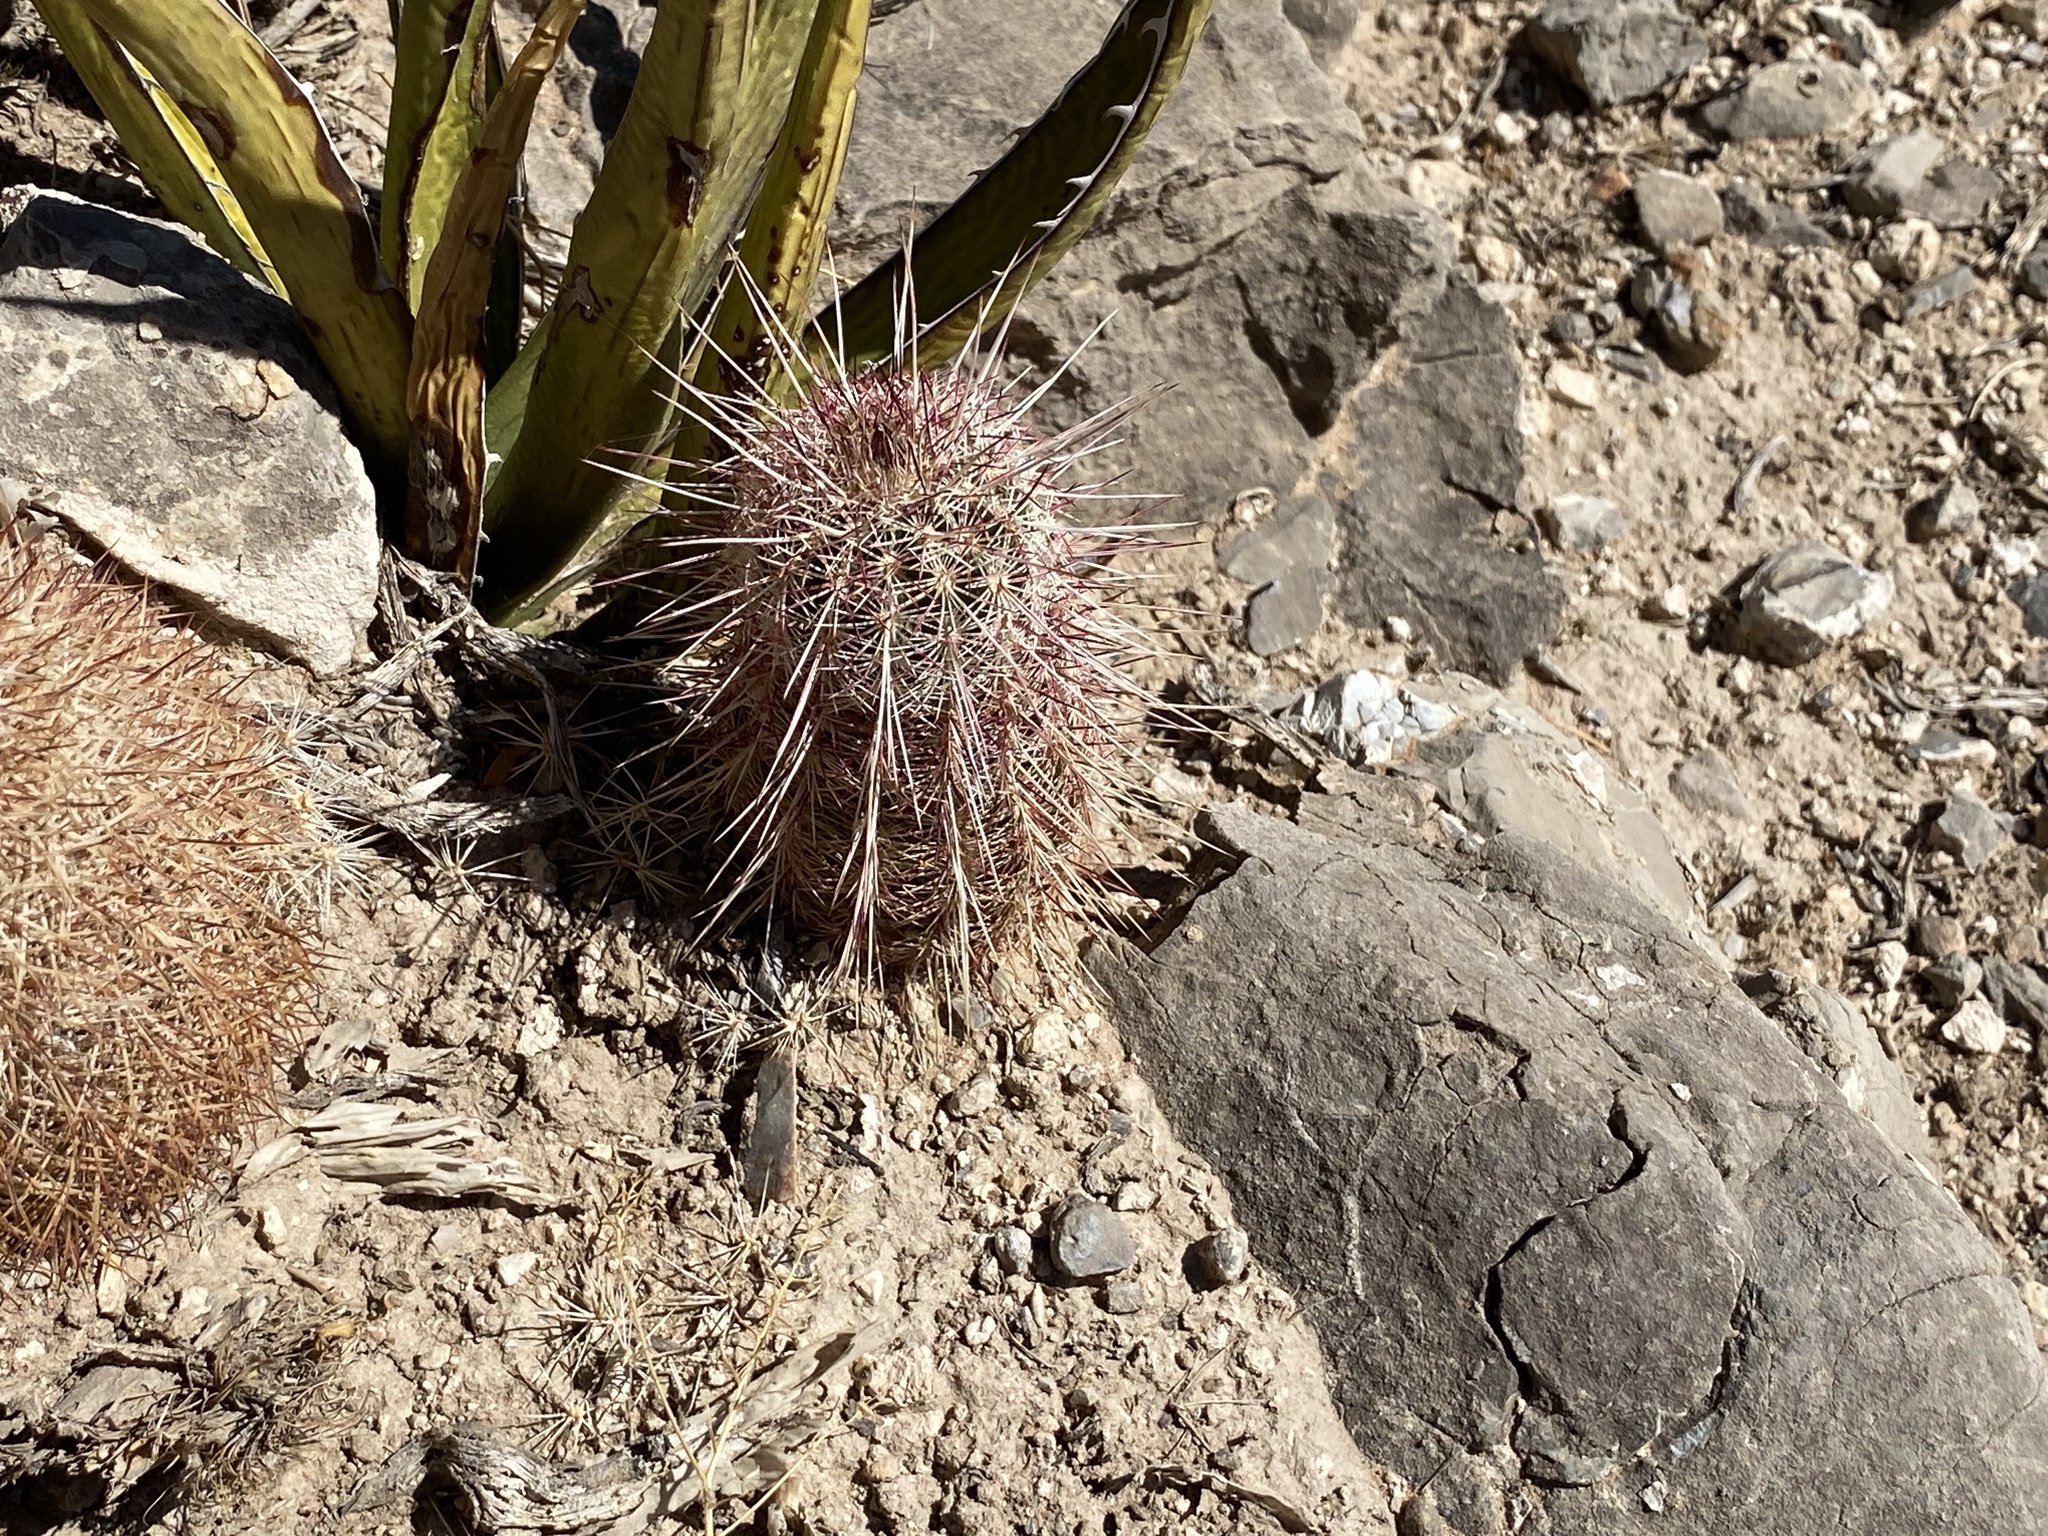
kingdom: Plantae
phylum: Tracheophyta
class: Magnoliopsida
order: Caryophyllales
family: Cactaceae
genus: Echinocereus
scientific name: Echinocereus viridiflorus
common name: Nylon hedgehog cactus
